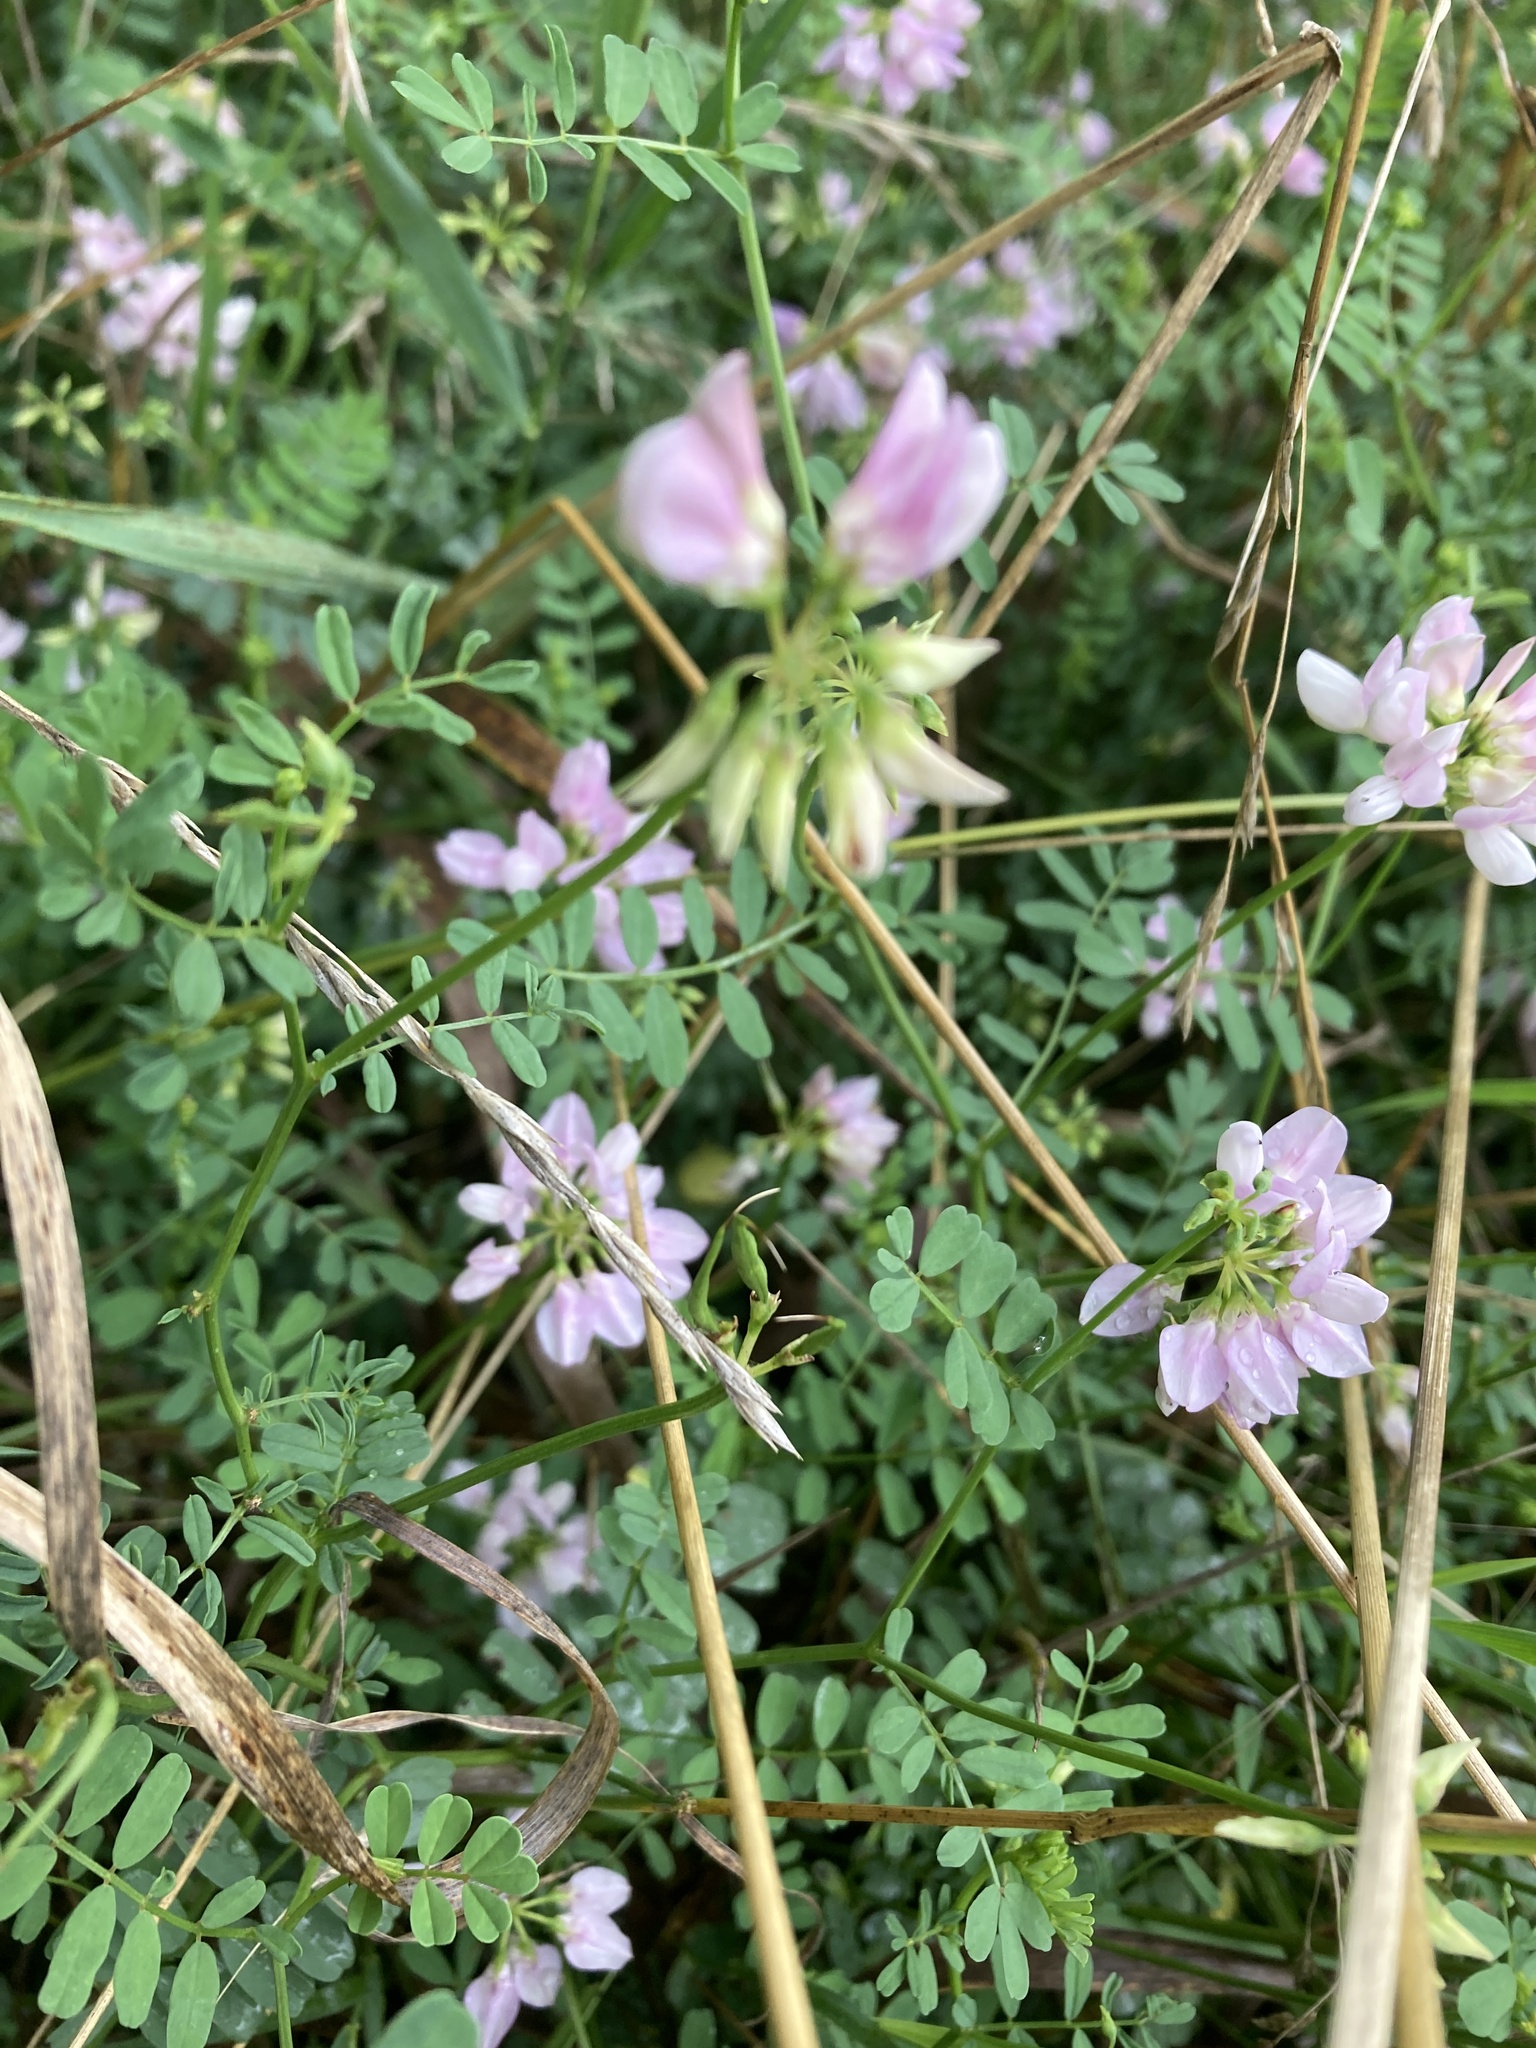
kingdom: Plantae
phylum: Tracheophyta
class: Magnoliopsida
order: Fabales
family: Fabaceae
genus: Coronilla
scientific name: Coronilla varia
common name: Crownvetch
